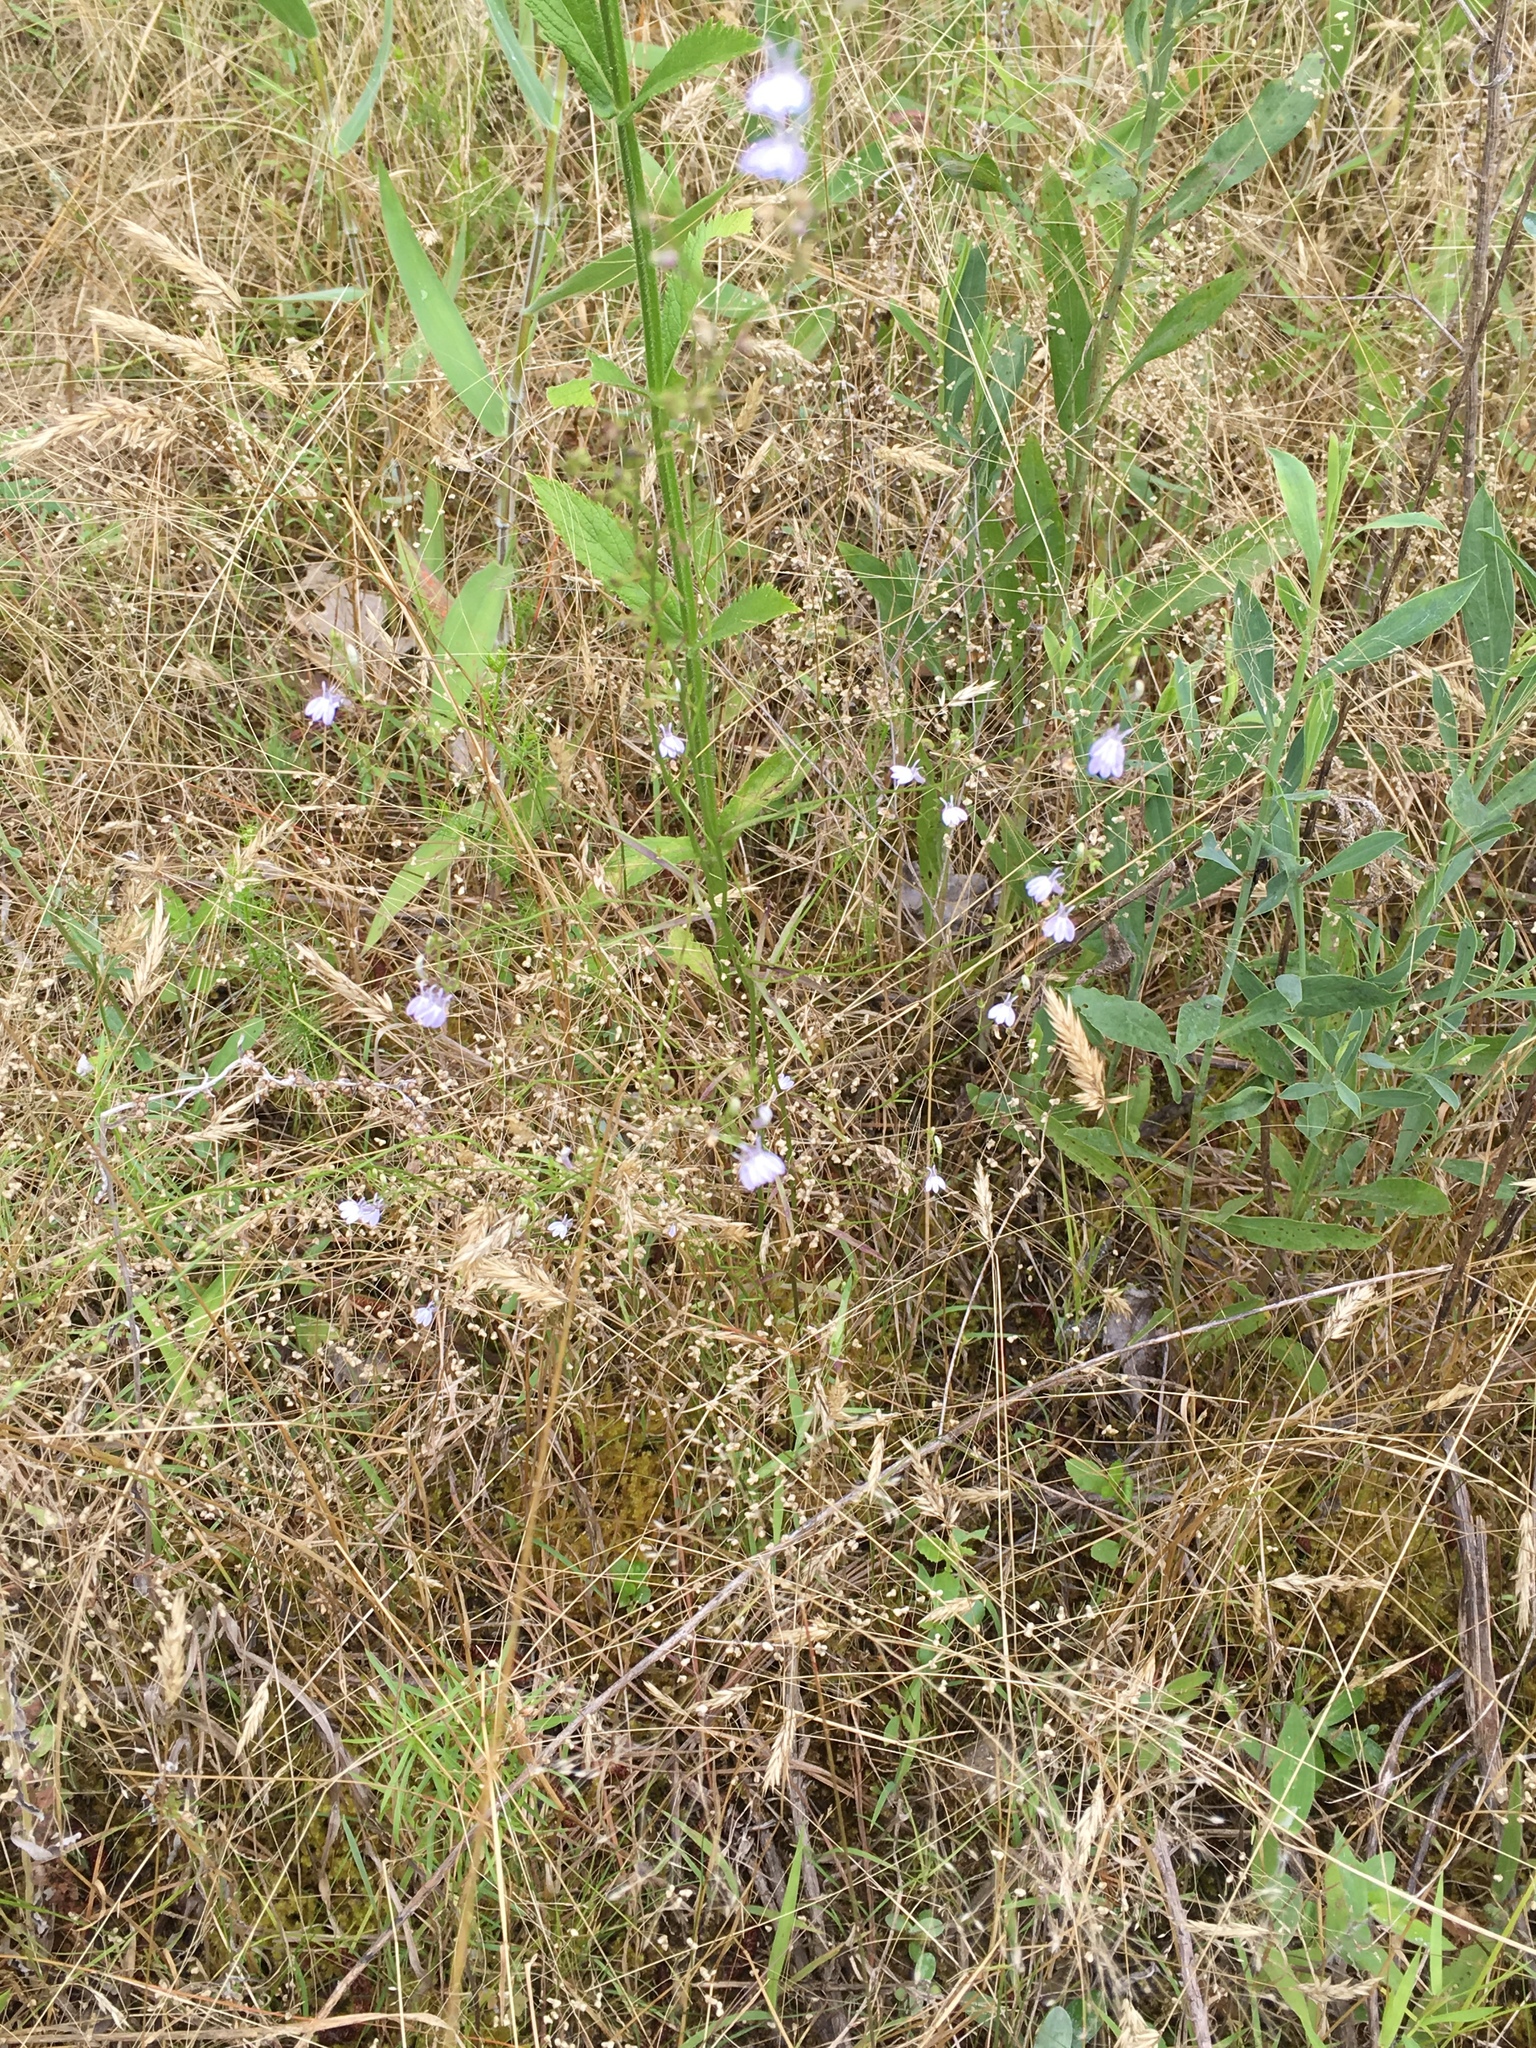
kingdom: Plantae
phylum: Tracheophyta
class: Magnoliopsida
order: Asterales
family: Campanulaceae
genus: Lobelia
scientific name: Lobelia nuttallii
